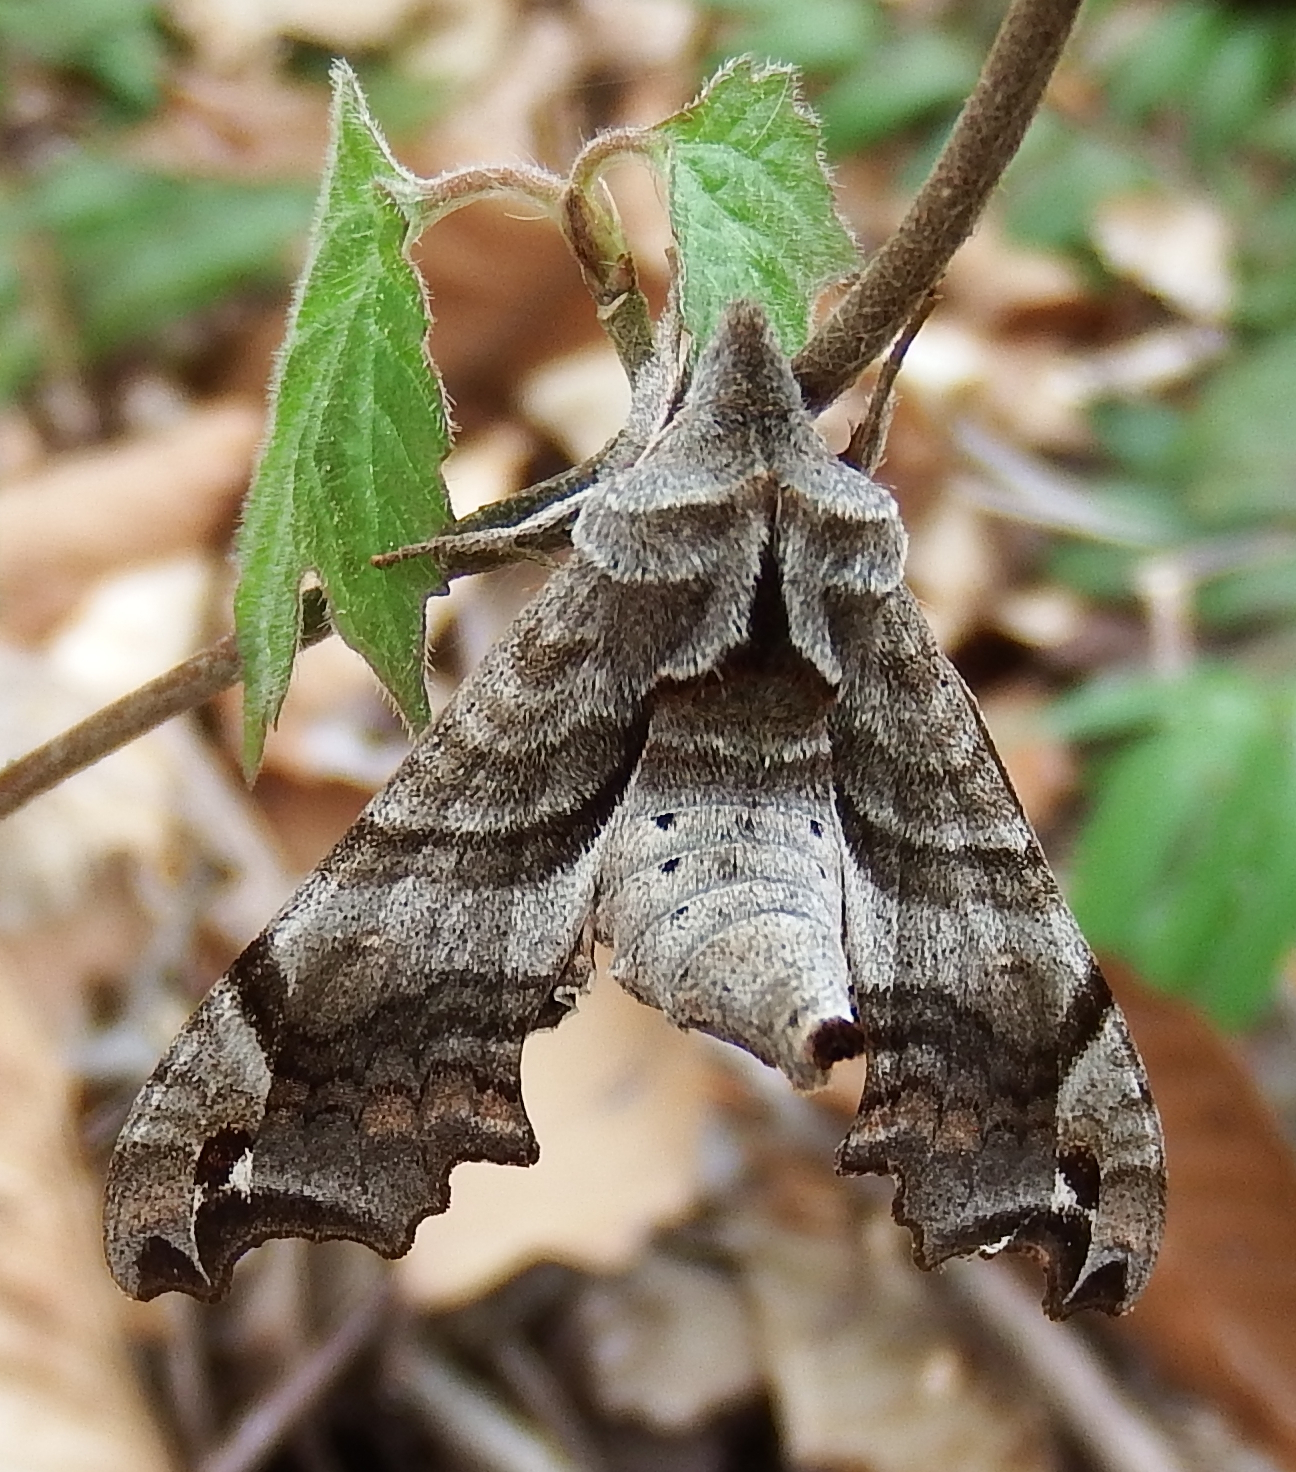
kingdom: Animalia
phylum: Arthropoda
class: Insecta
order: Lepidoptera
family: Sphingidae
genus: Deidamia
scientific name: Deidamia inscriptum
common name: Lettered sphinx
